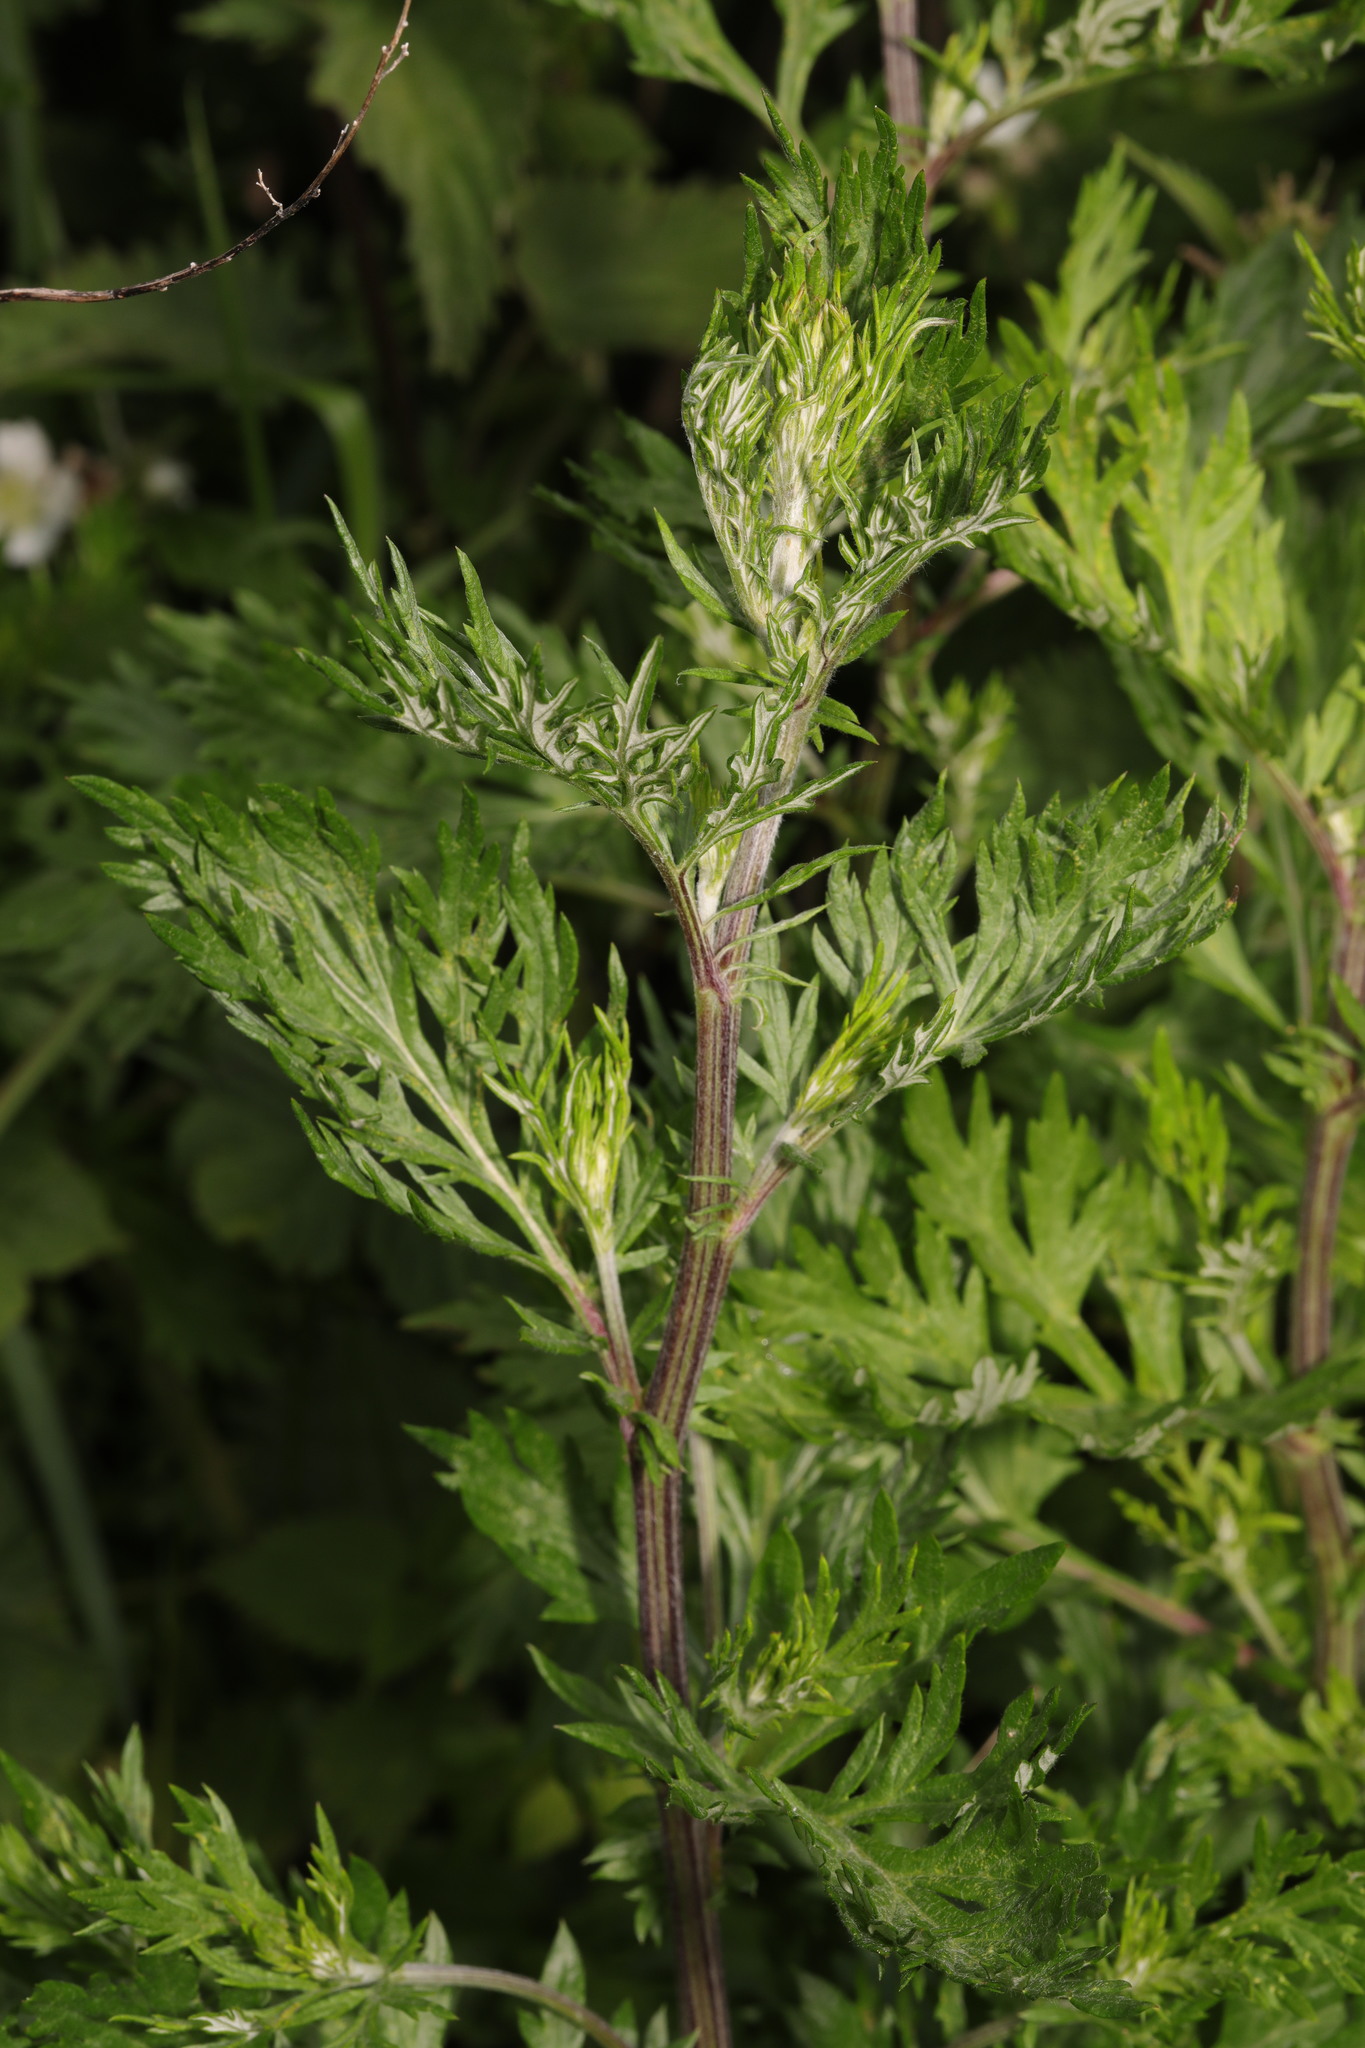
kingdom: Plantae
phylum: Tracheophyta
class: Magnoliopsida
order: Asterales
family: Asteraceae
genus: Artemisia
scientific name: Artemisia vulgaris
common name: Mugwort
